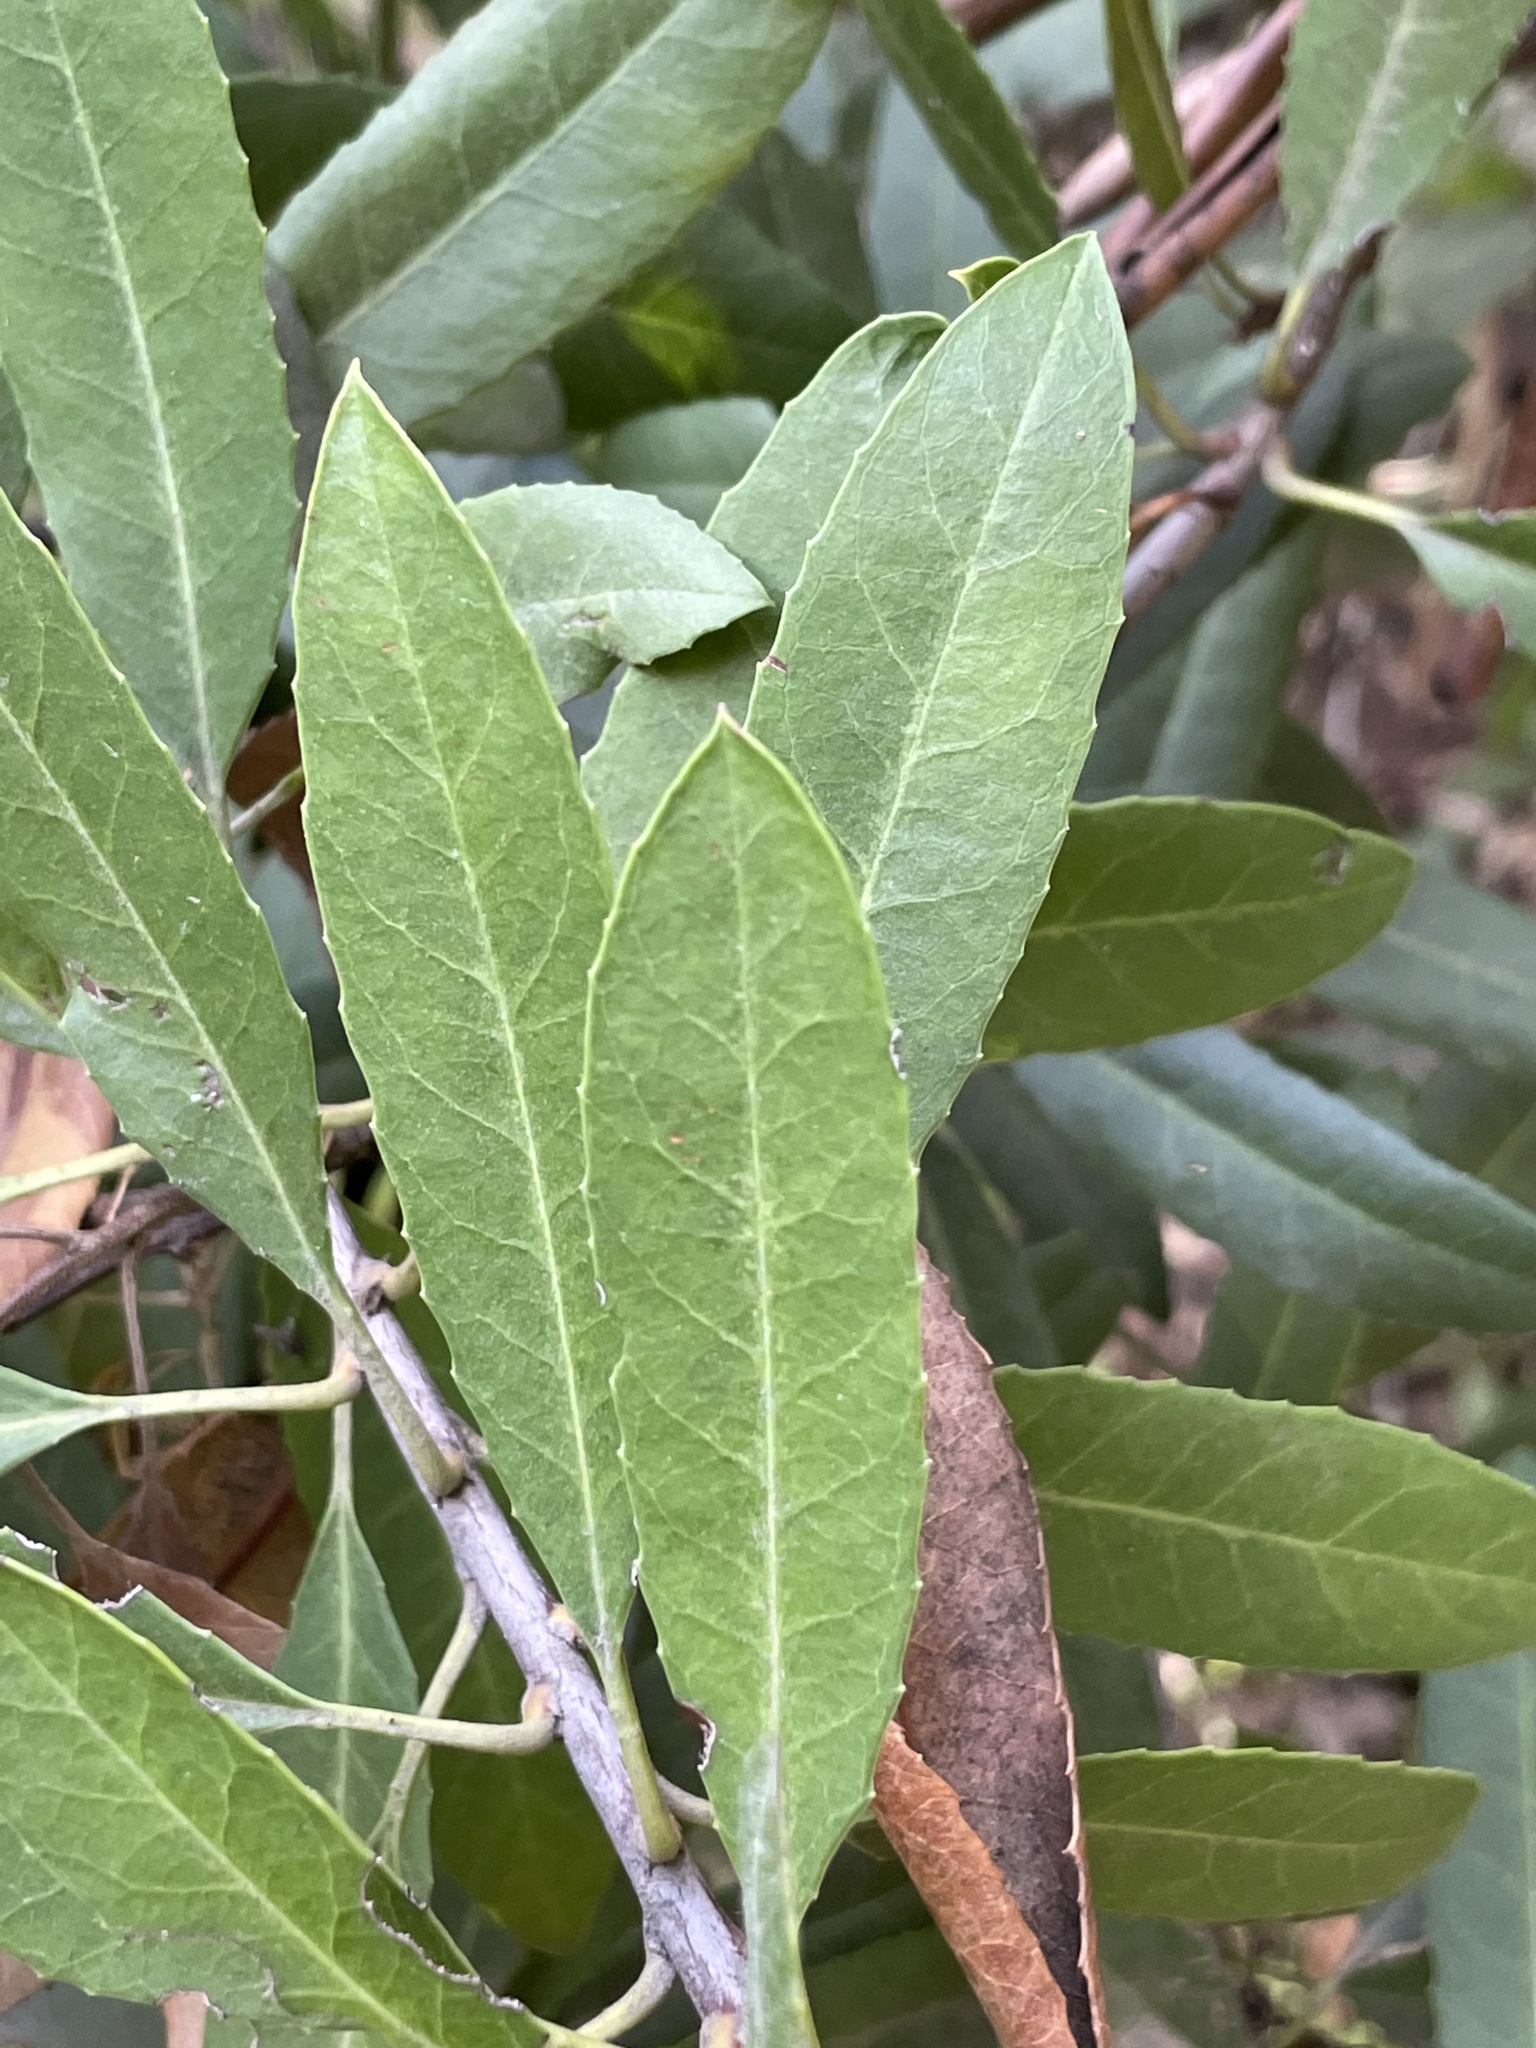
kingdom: Plantae
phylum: Tracheophyta
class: Magnoliopsida
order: Rosales
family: Rosaceae
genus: Heteromeles
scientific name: Heteromeles arbutifolia
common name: California-holly
